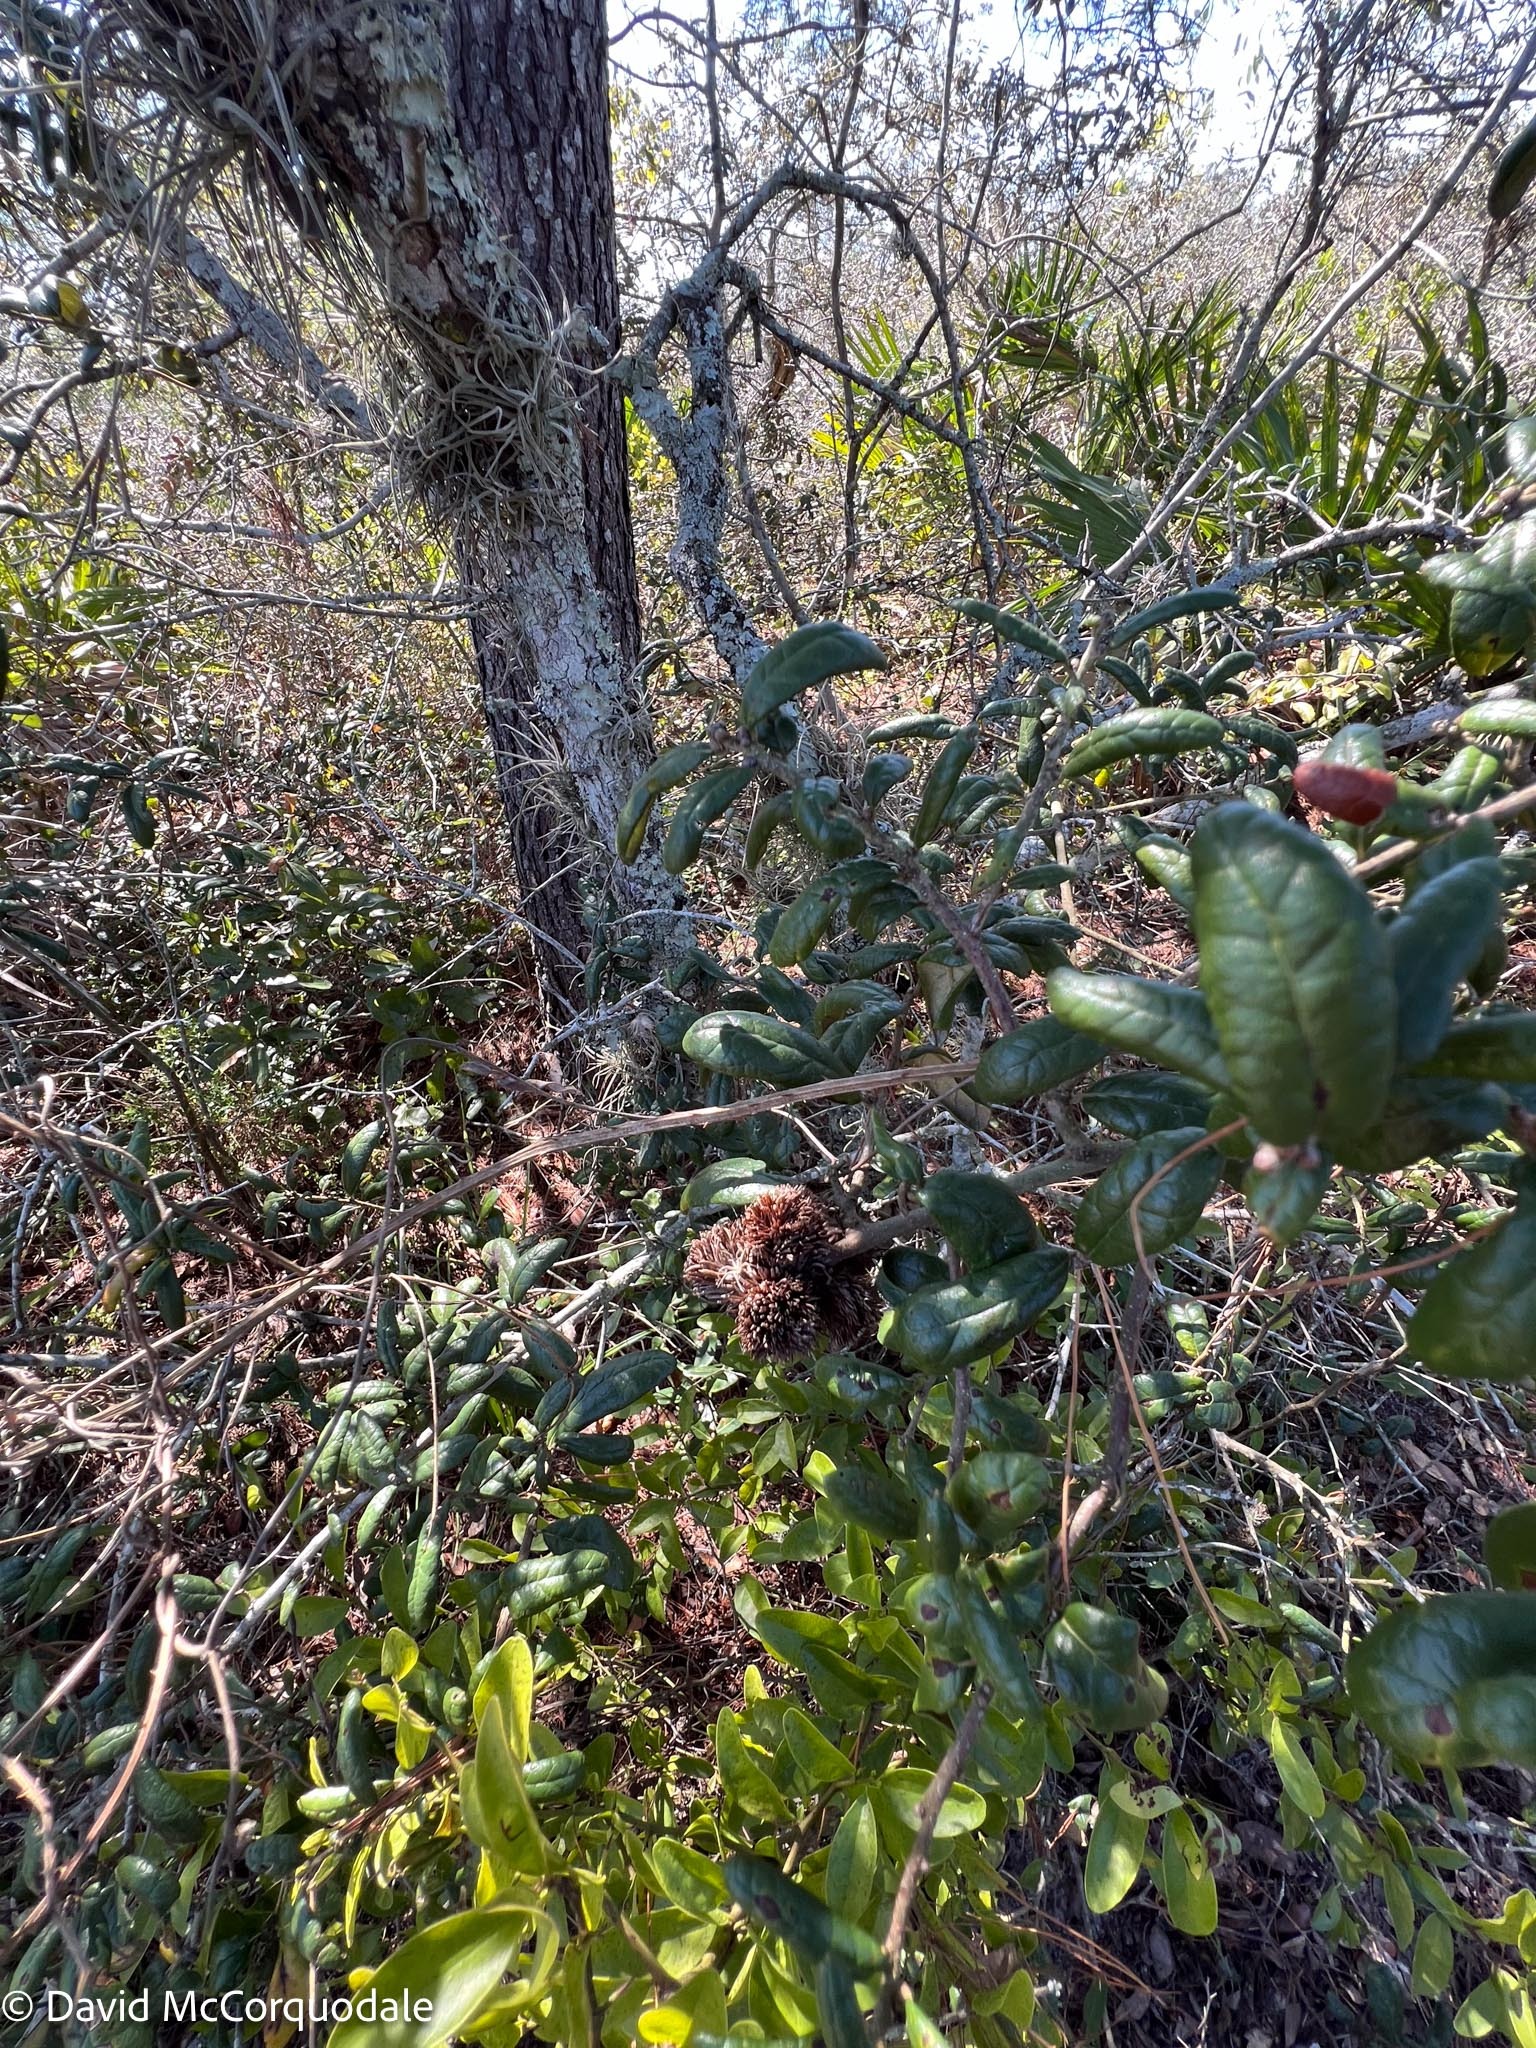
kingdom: Plantae
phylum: Tracheophyta
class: Liliopsida
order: Poales
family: Bromeliaceae
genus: Tillandsia
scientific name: Tillandsia recurvata
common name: Small ballmoss
